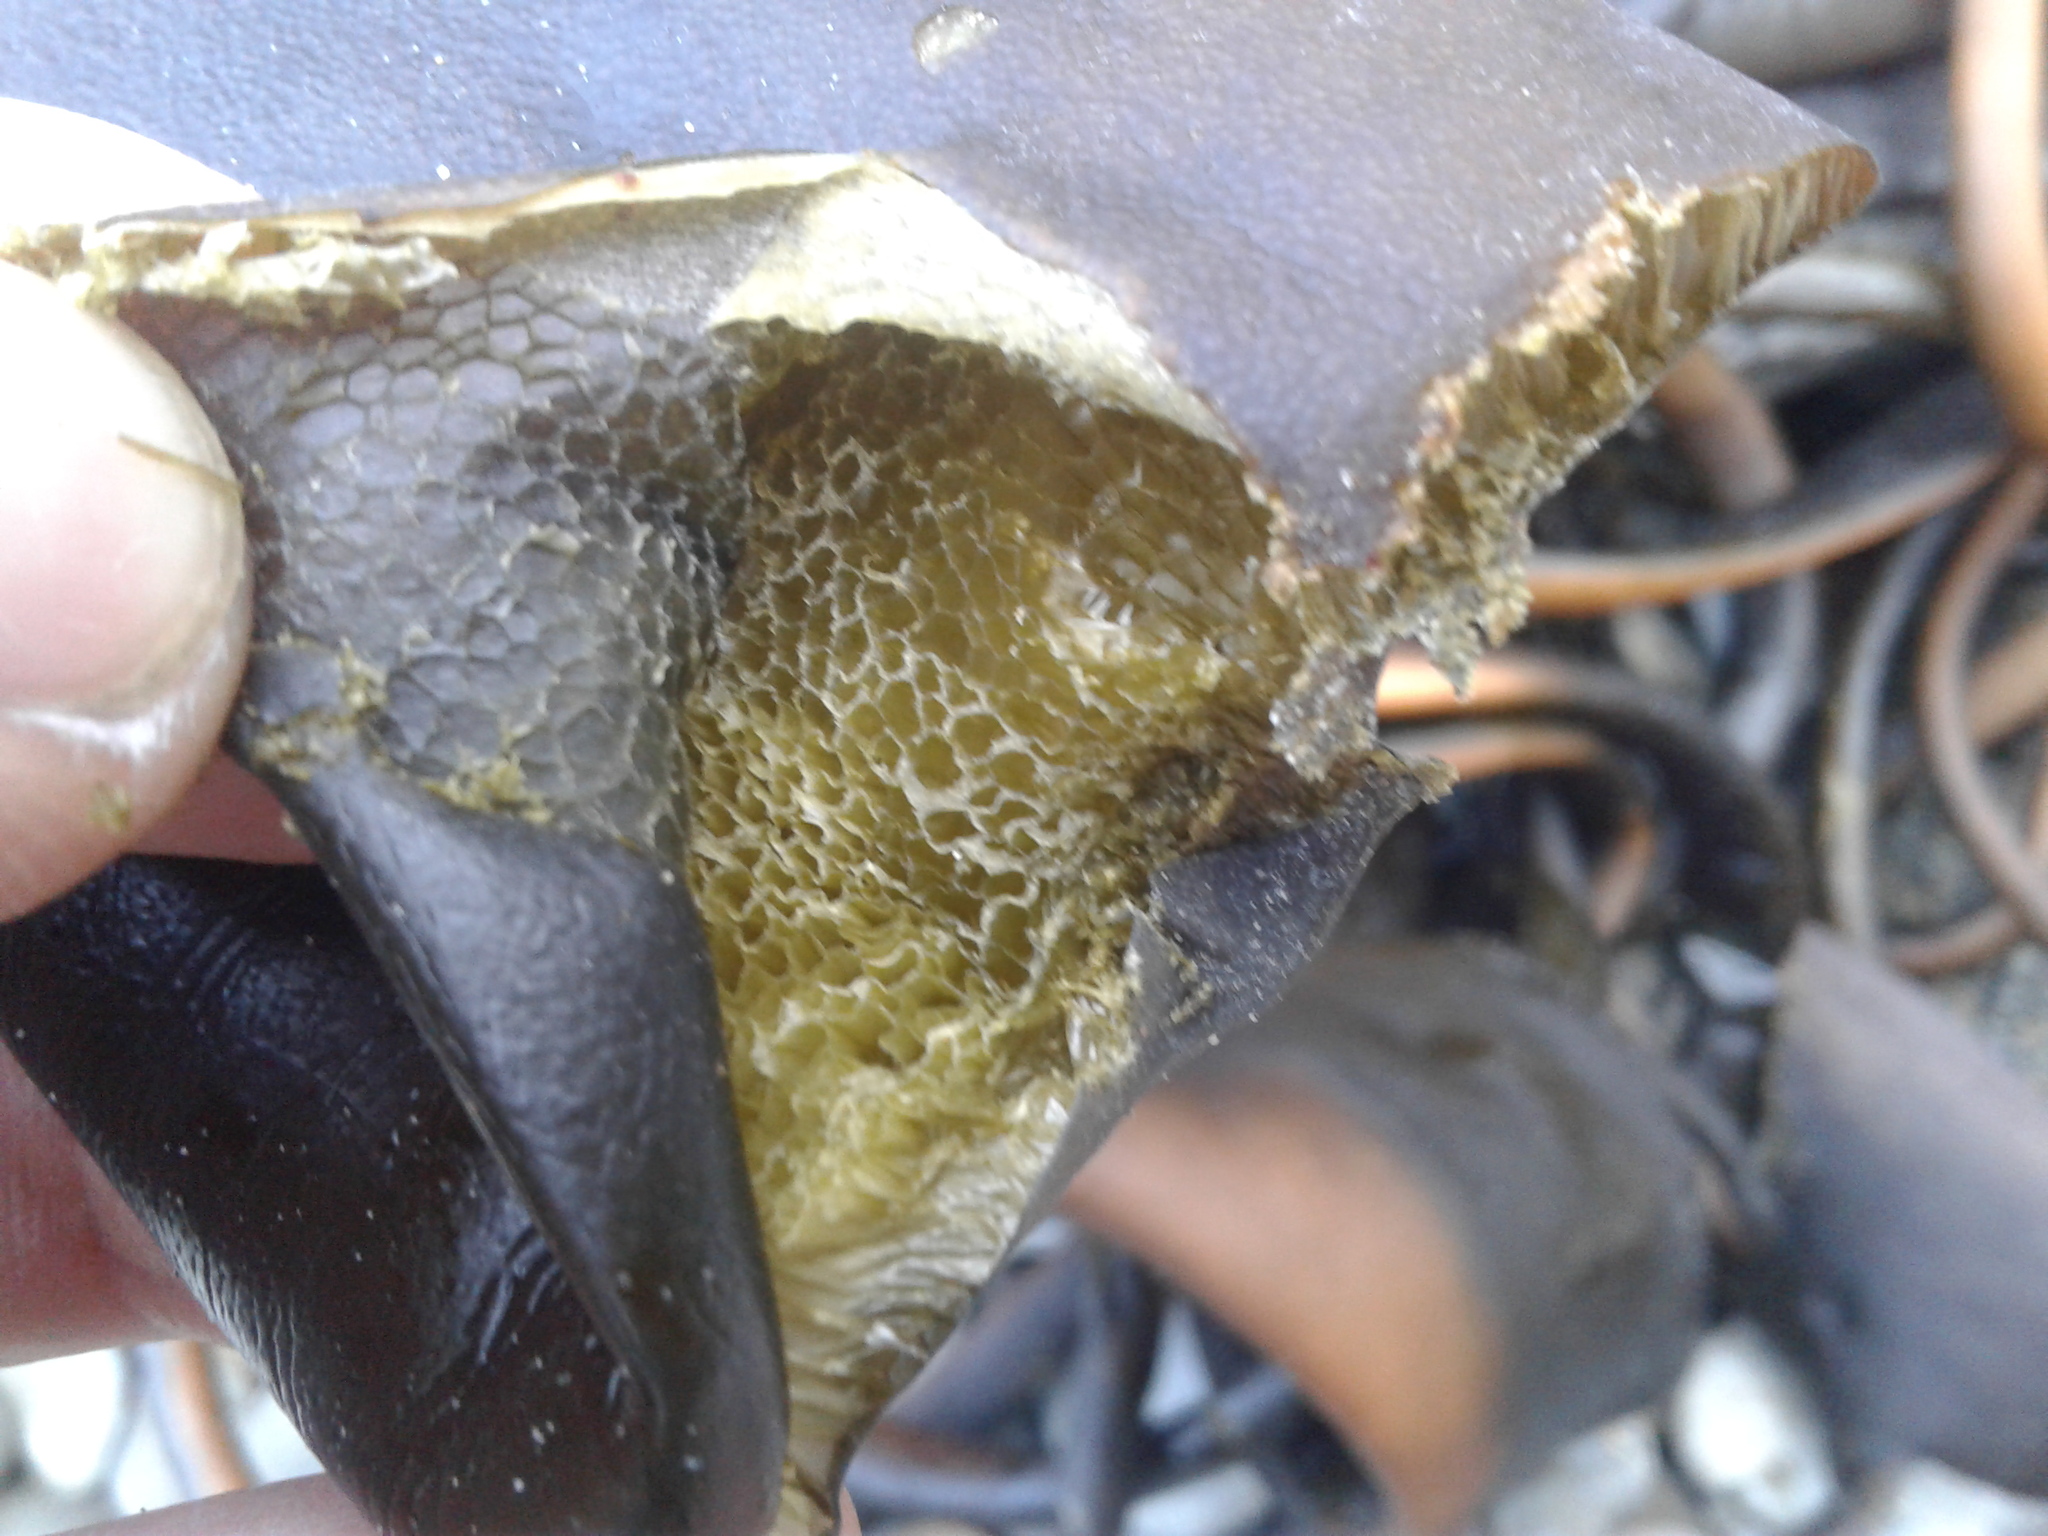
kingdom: Chromista
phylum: Ochrophyta
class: Phaeophyceae
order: Fucales
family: Durvillaeaceae
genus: Durvillaea
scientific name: Durvillaea antarctica
